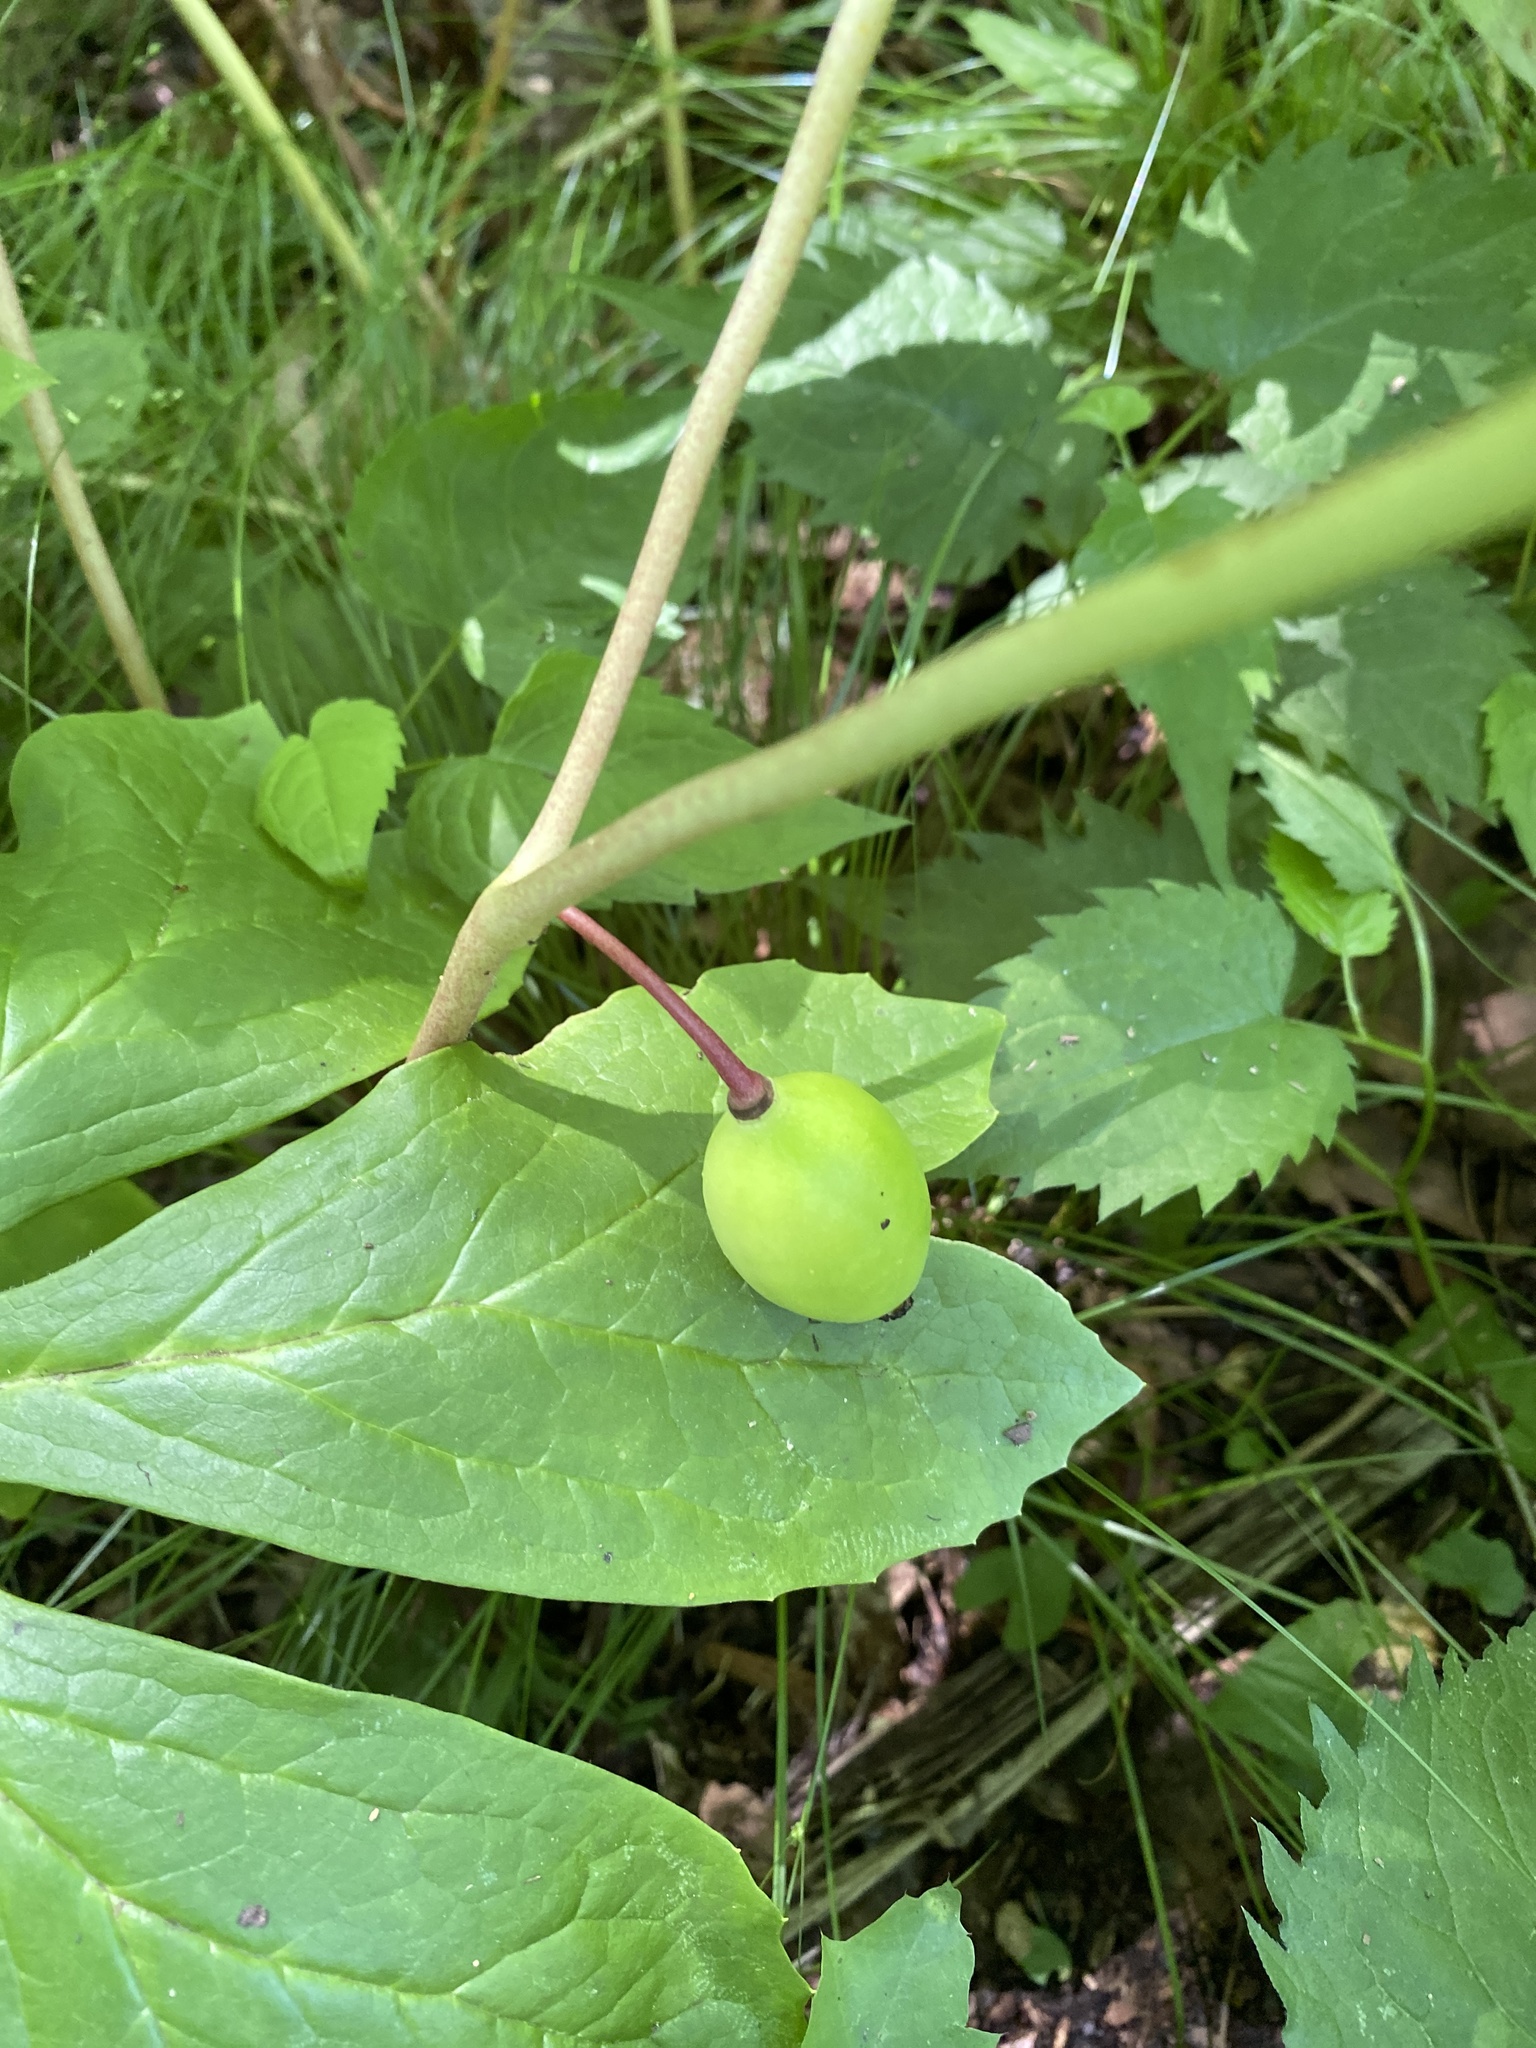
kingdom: Plantae
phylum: Tracheophyta
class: Magnoliopsida
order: Ranunculales
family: Berberidaceae
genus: Podophyllum
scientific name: Podophyllum peltatum
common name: Wild mandrake
